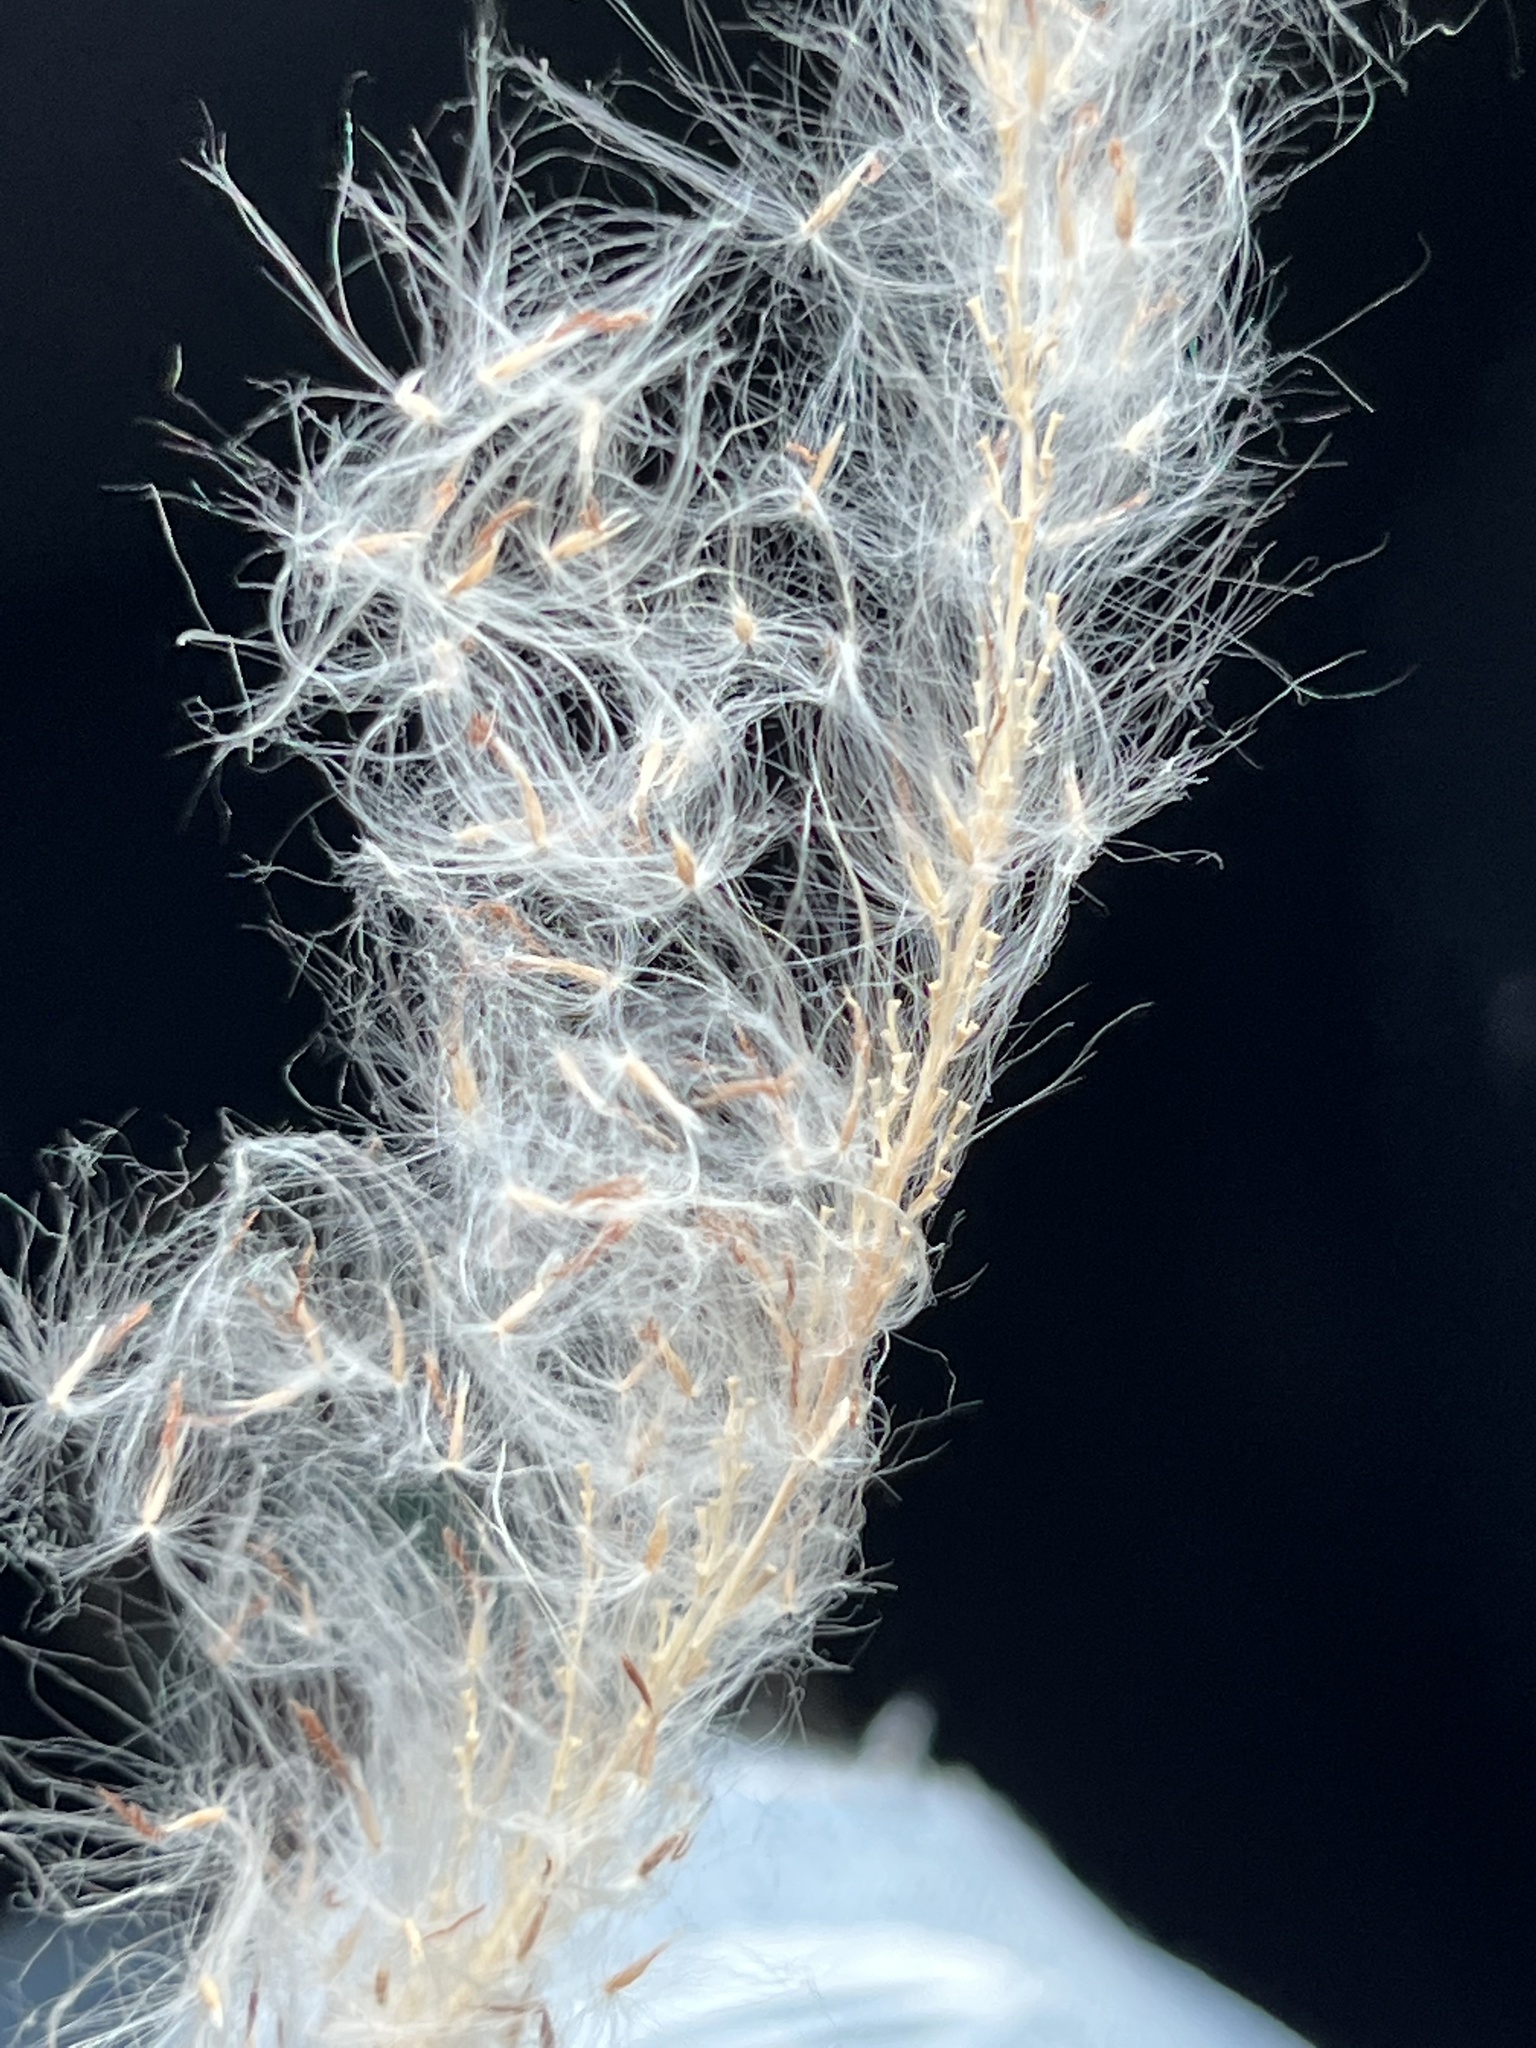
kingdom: Plantae
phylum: Tracheophyta
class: Liliopsida
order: Poales
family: Poaceae
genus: Imperata
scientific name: Imperata cylindrica
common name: Cogongrass
